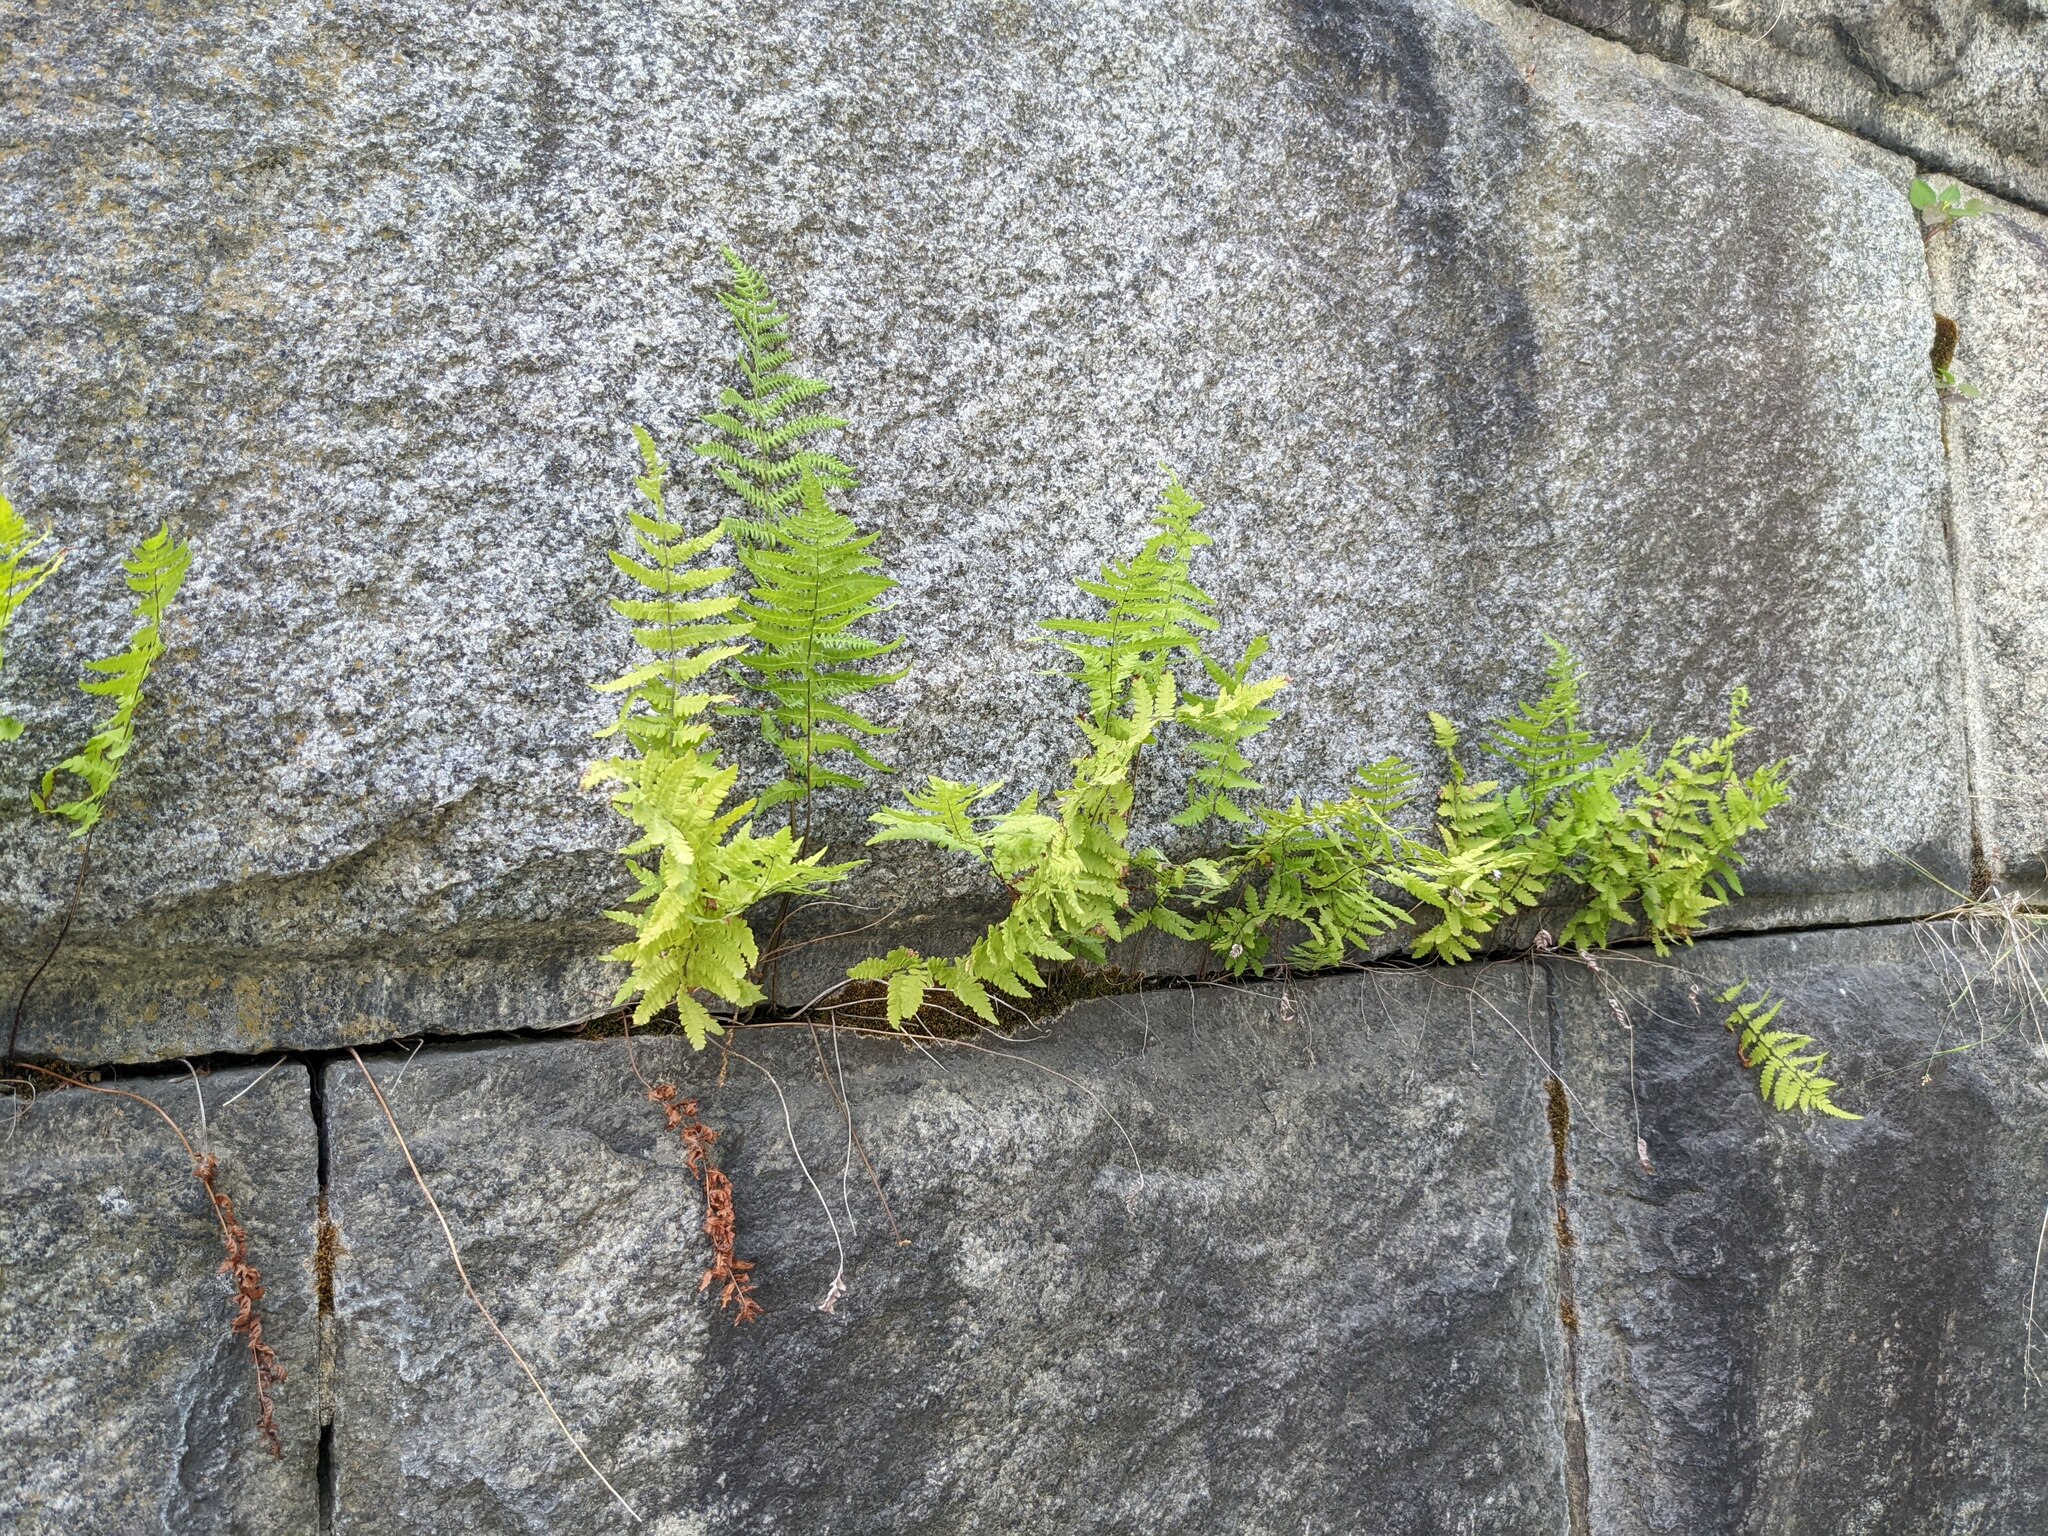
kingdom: Plantae
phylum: Tracheophyta
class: Polypodiopsida
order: Polypodiales
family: Thelypteridaceae
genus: Thelypteris
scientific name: Thelypteris palustris
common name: Marsh fern
